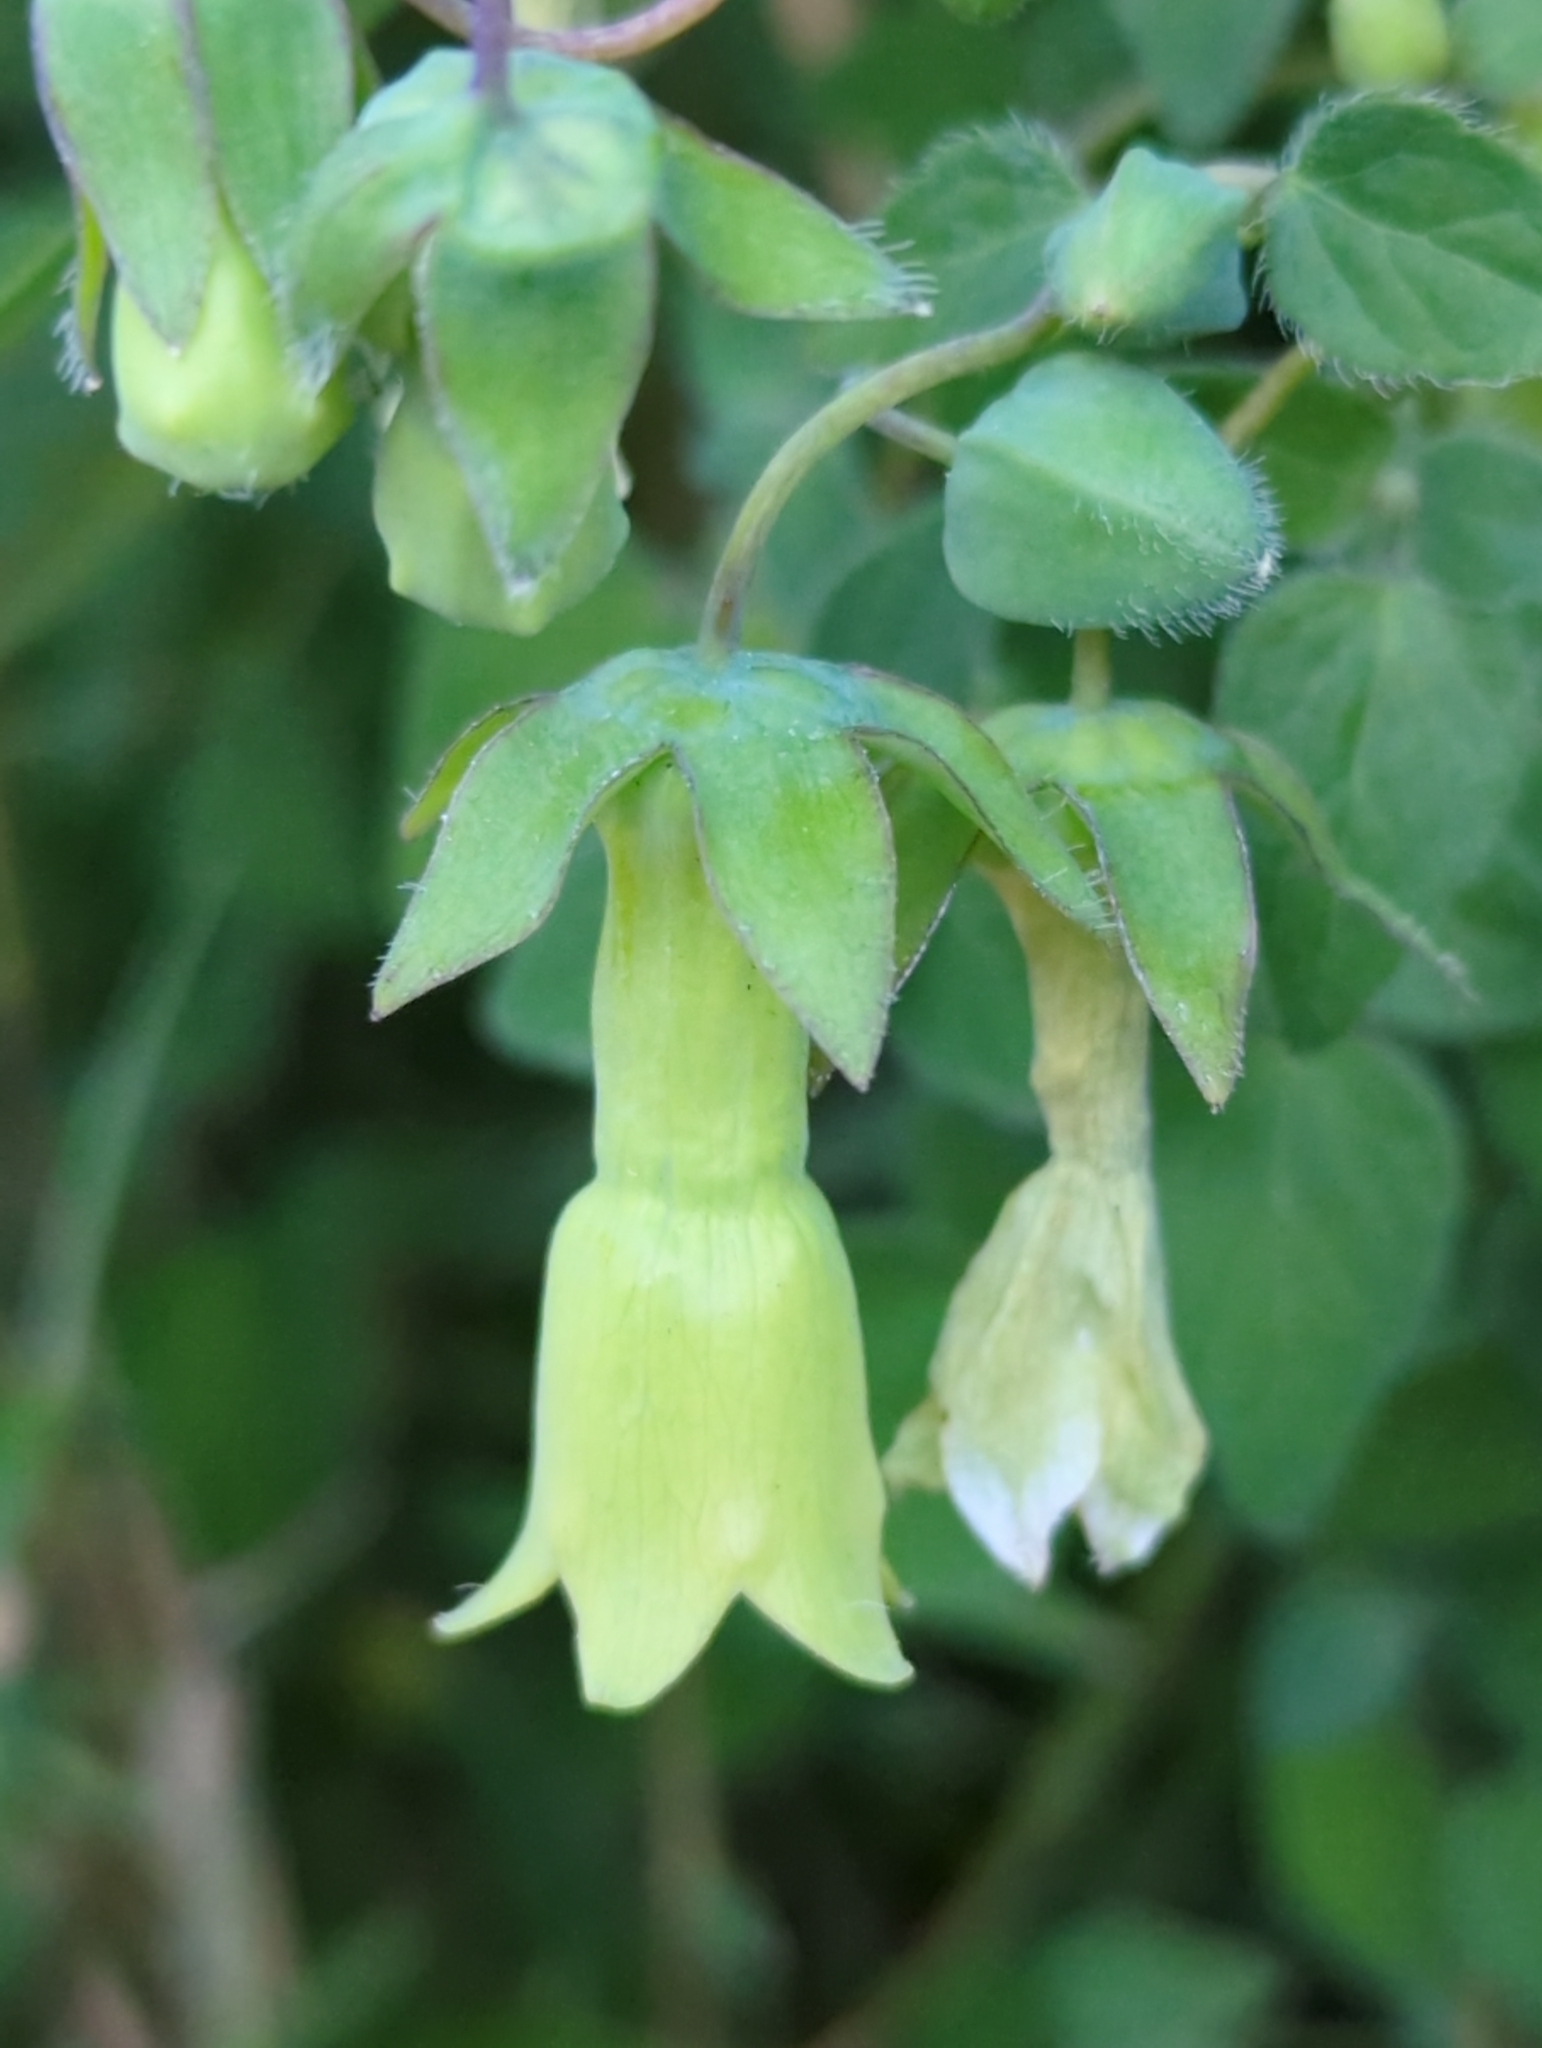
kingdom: Plantae
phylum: Tracheophyta
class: Magnoliopsida
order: Asterales
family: Campanulaceae
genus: Codonopsis
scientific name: Codonopsis kawakamii
